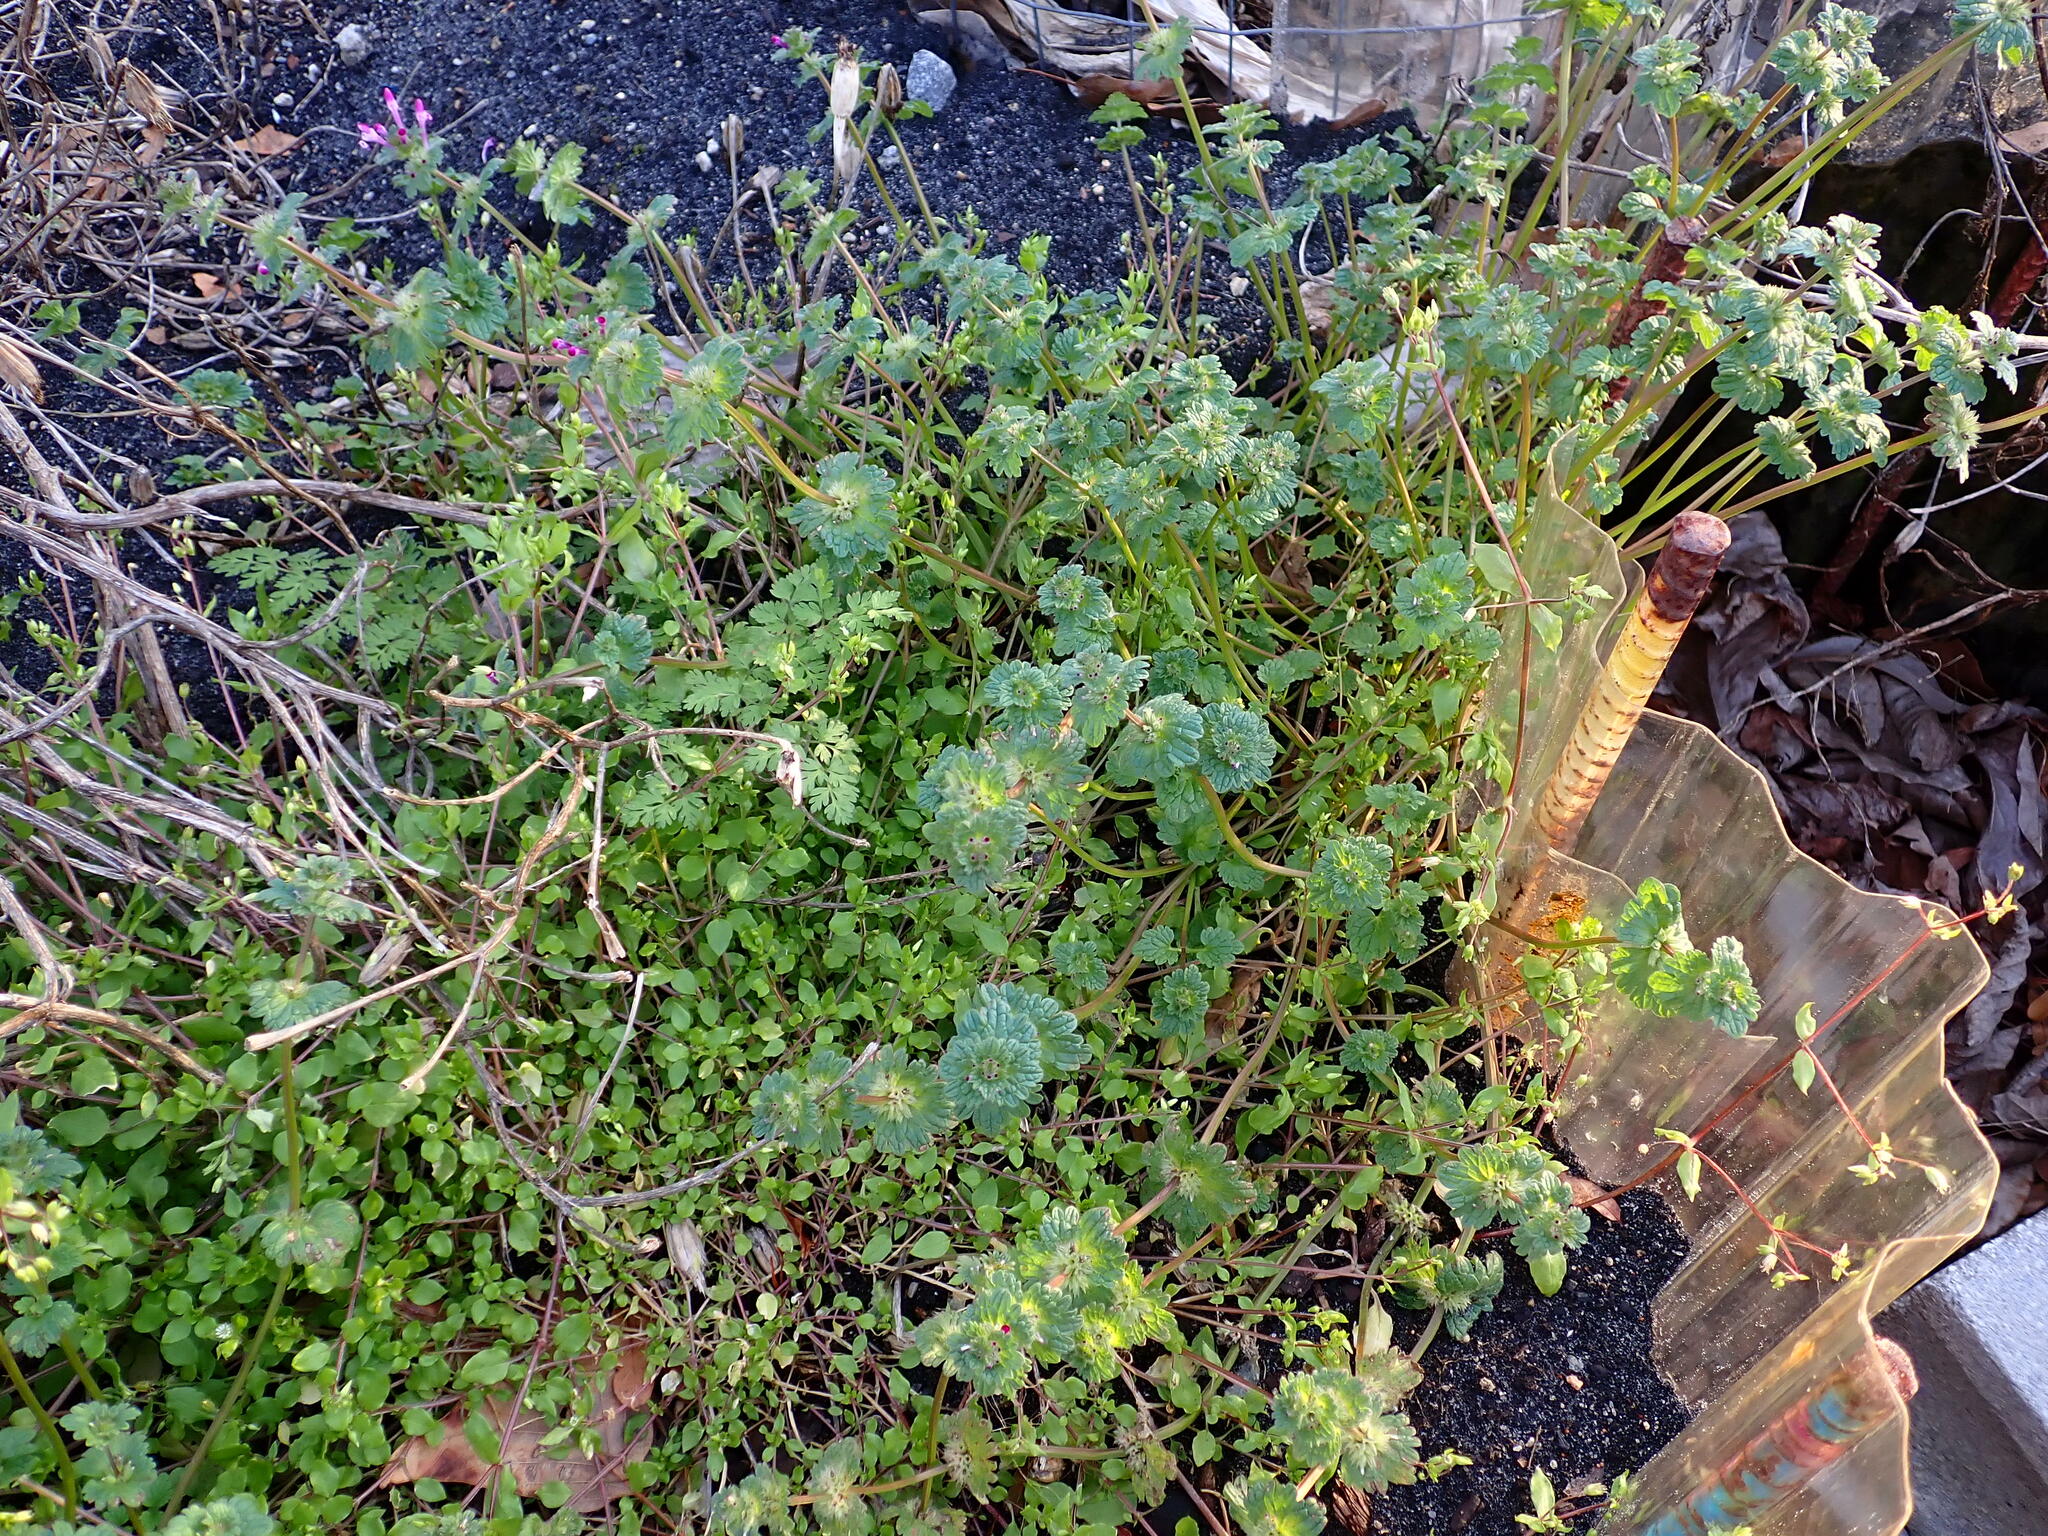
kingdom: Plantae
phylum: Tracheophyta
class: Magnoliopsida
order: Lamiales
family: Lamiaceae
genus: Lamium
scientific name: Lamium amplexicaule
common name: Henbit dead-nettle
